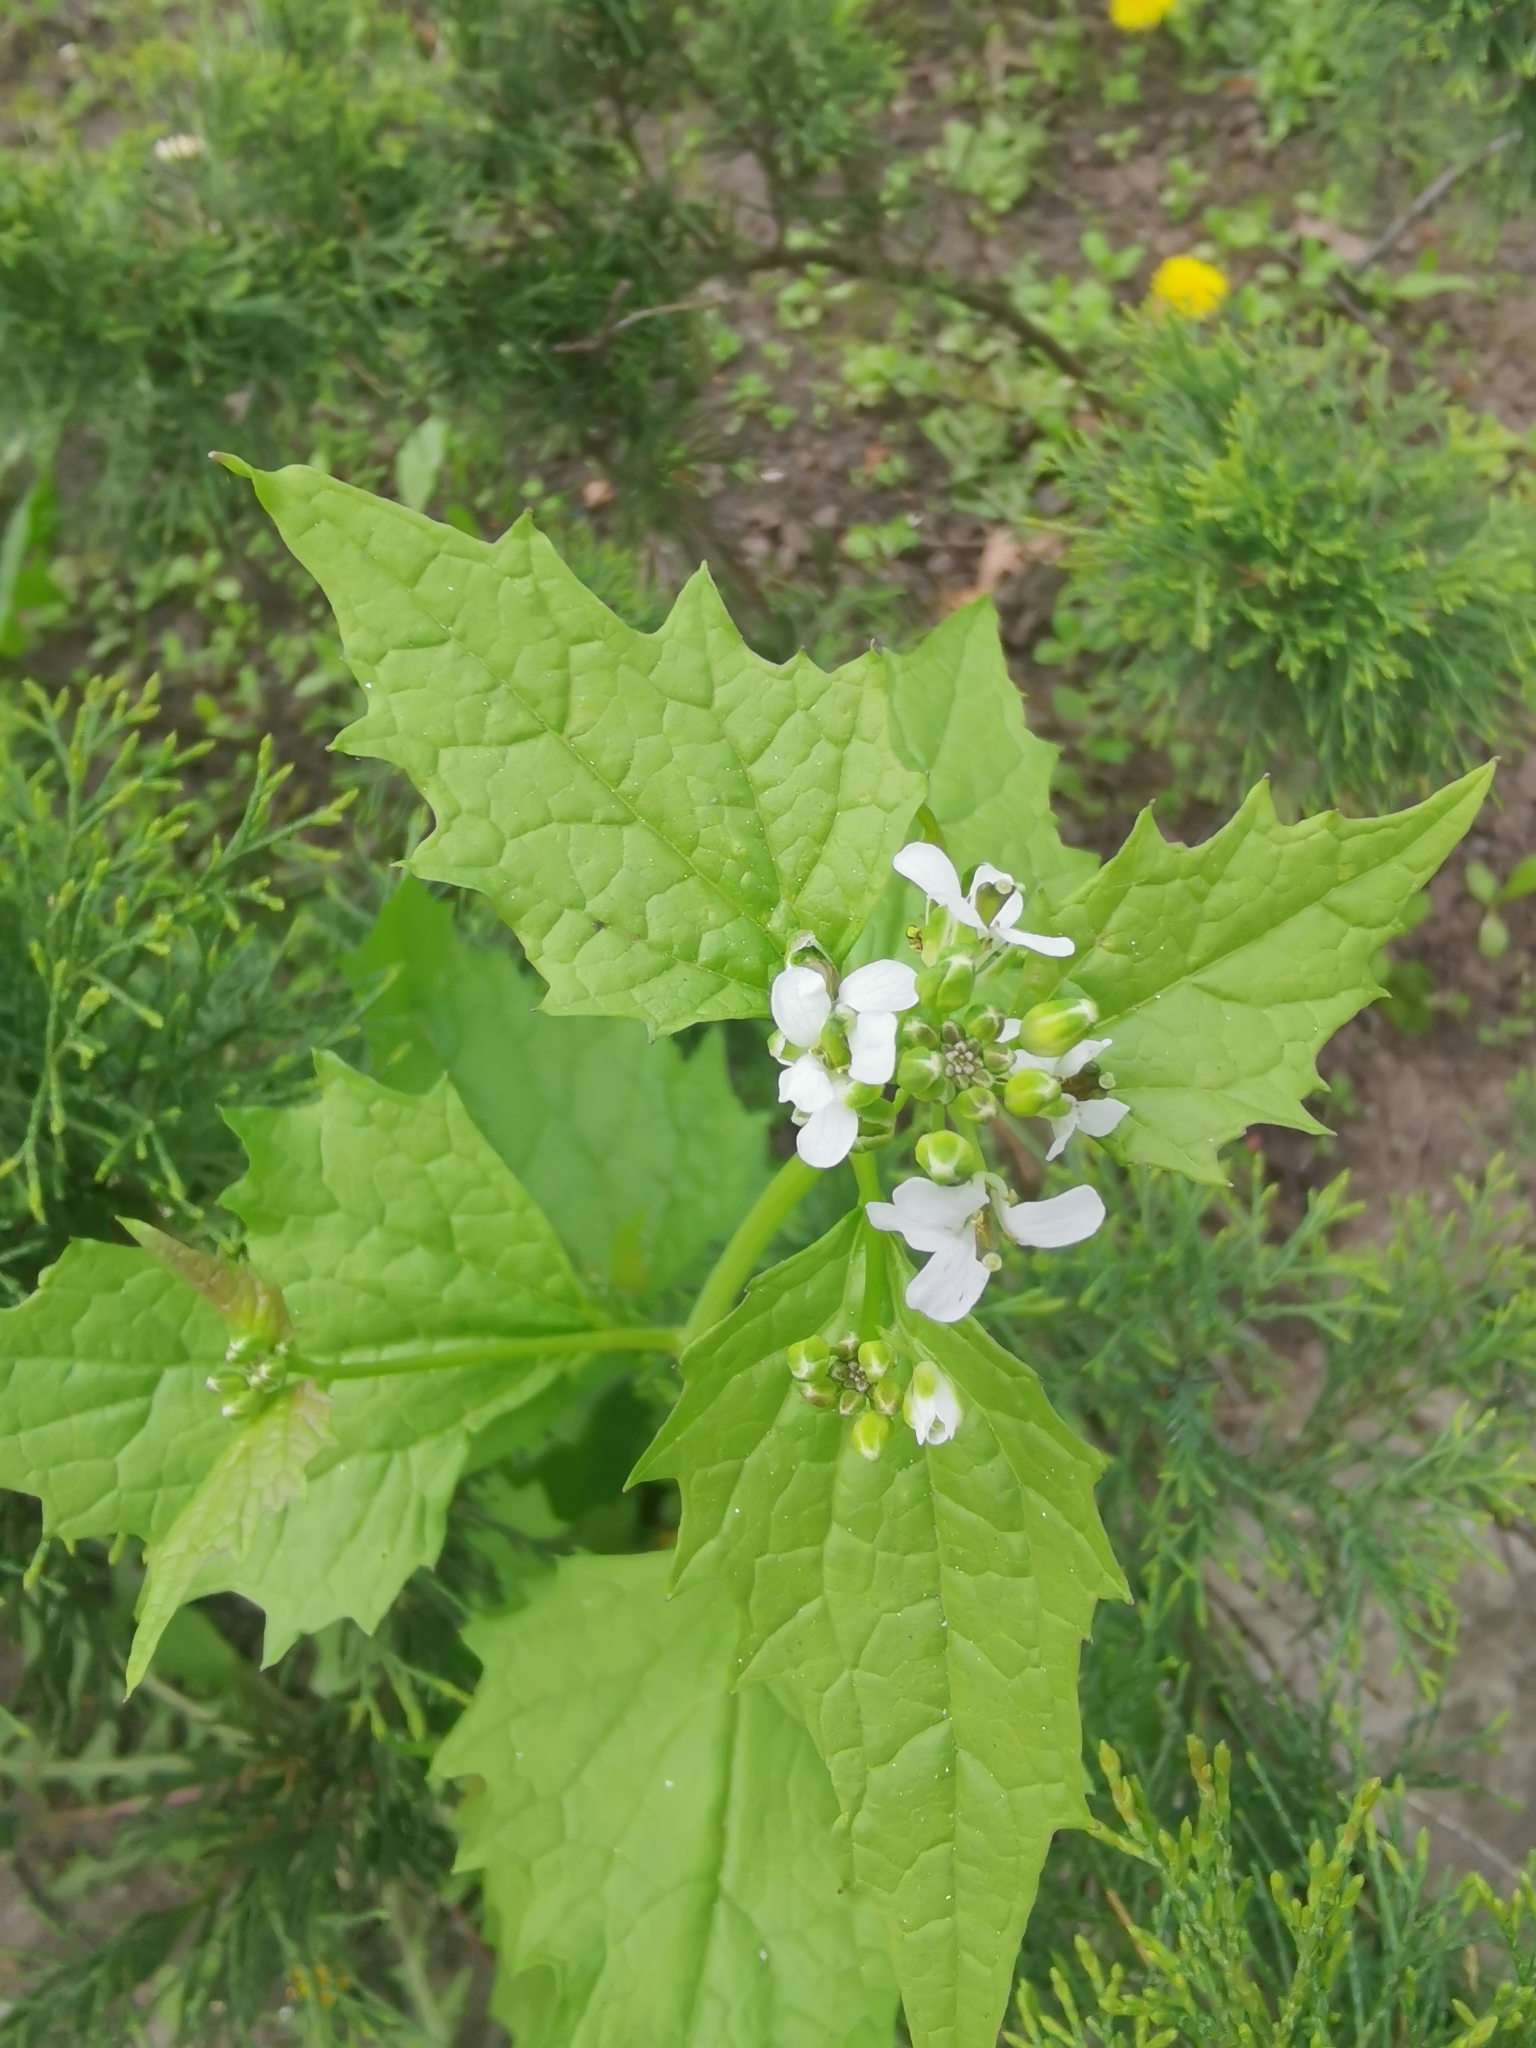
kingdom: Plantae
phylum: Tracheophyta
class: Magnoliopsida
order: Brassicales
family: Brassicaceae
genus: Alliaria
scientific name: Alliaria petiolata
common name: Garlic mustard
